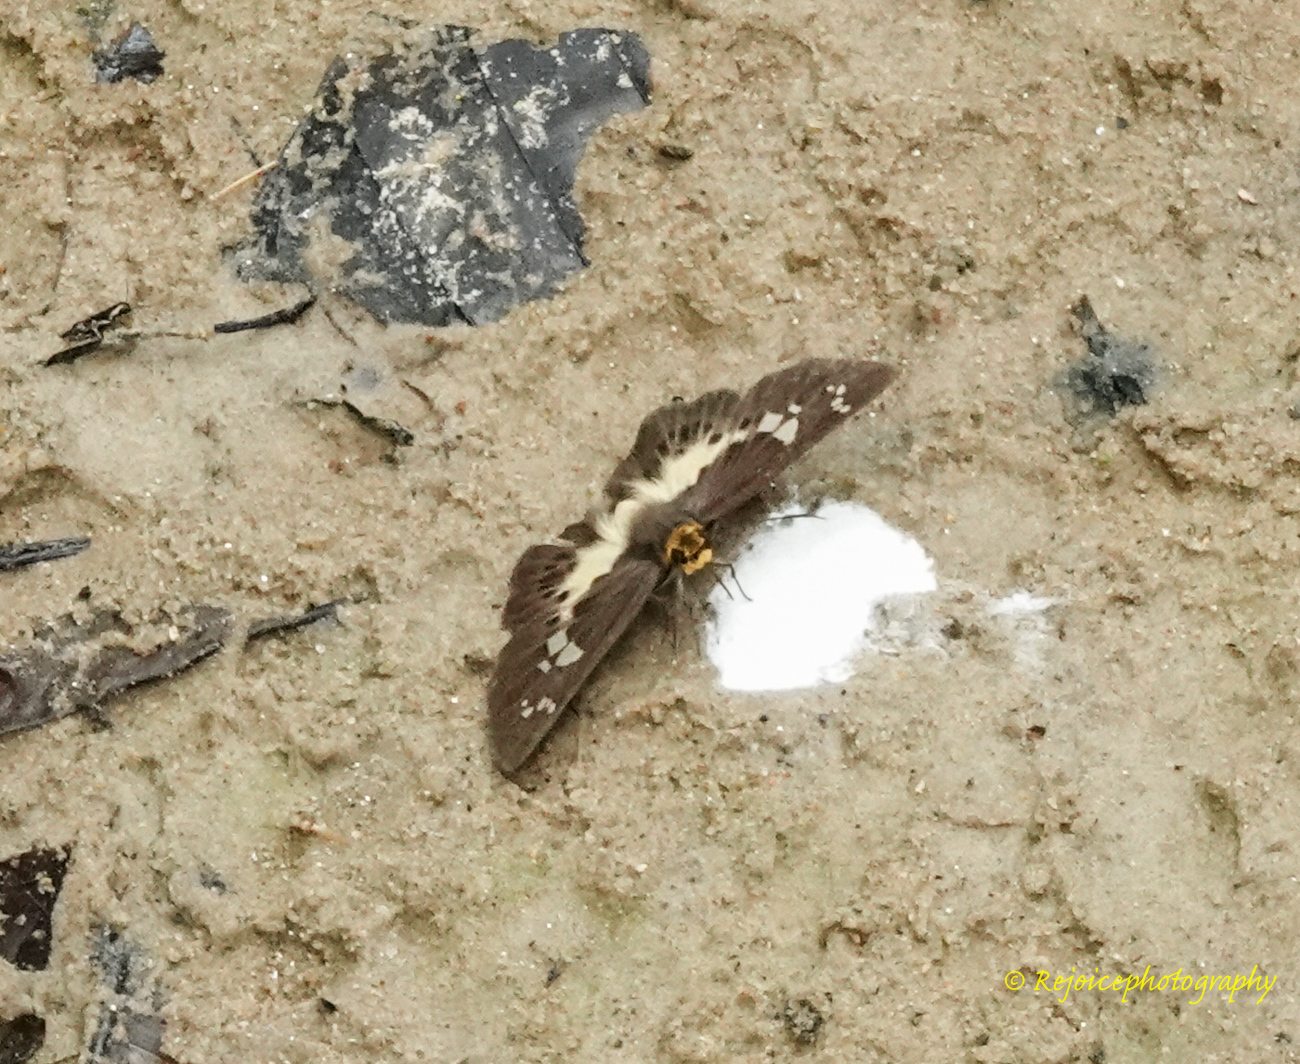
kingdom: Animalia
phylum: Arthropoda
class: Insecta
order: Lepidoptera
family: Hesperiidae
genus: Daimio
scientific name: Daimio
